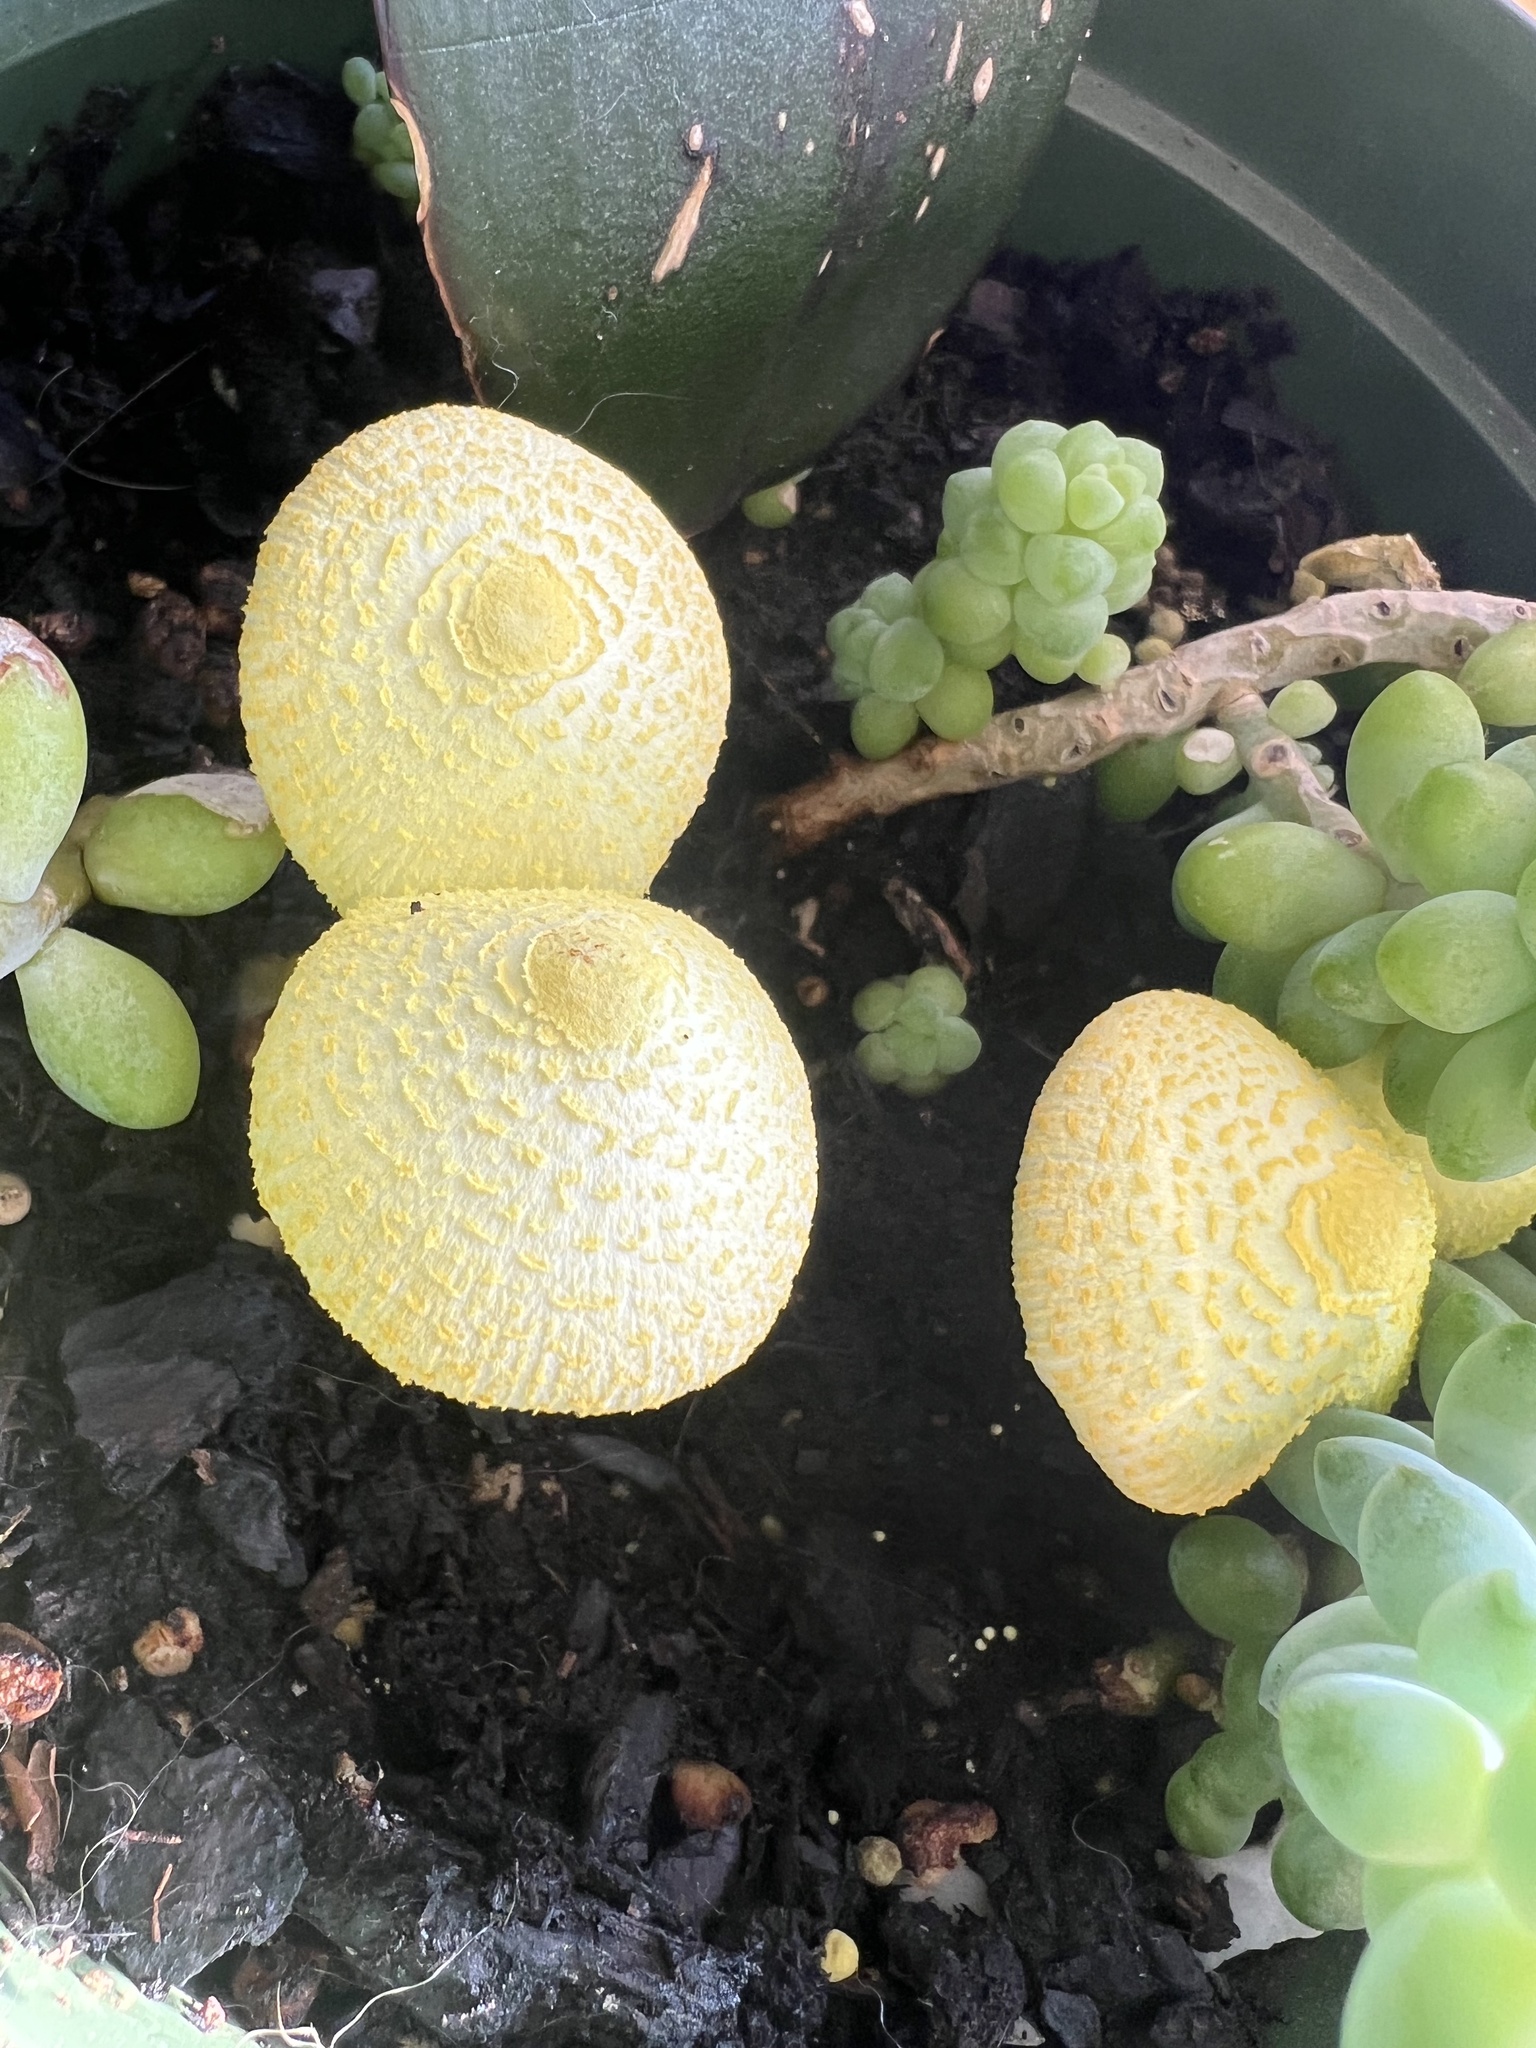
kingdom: Fungi
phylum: Basidiomycota
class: Agaricomycetes
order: Agaricales
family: Agaricaceae
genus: Leucocoprinus
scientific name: Leucocoprinus birnbaumii
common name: Plantpot dapperling
